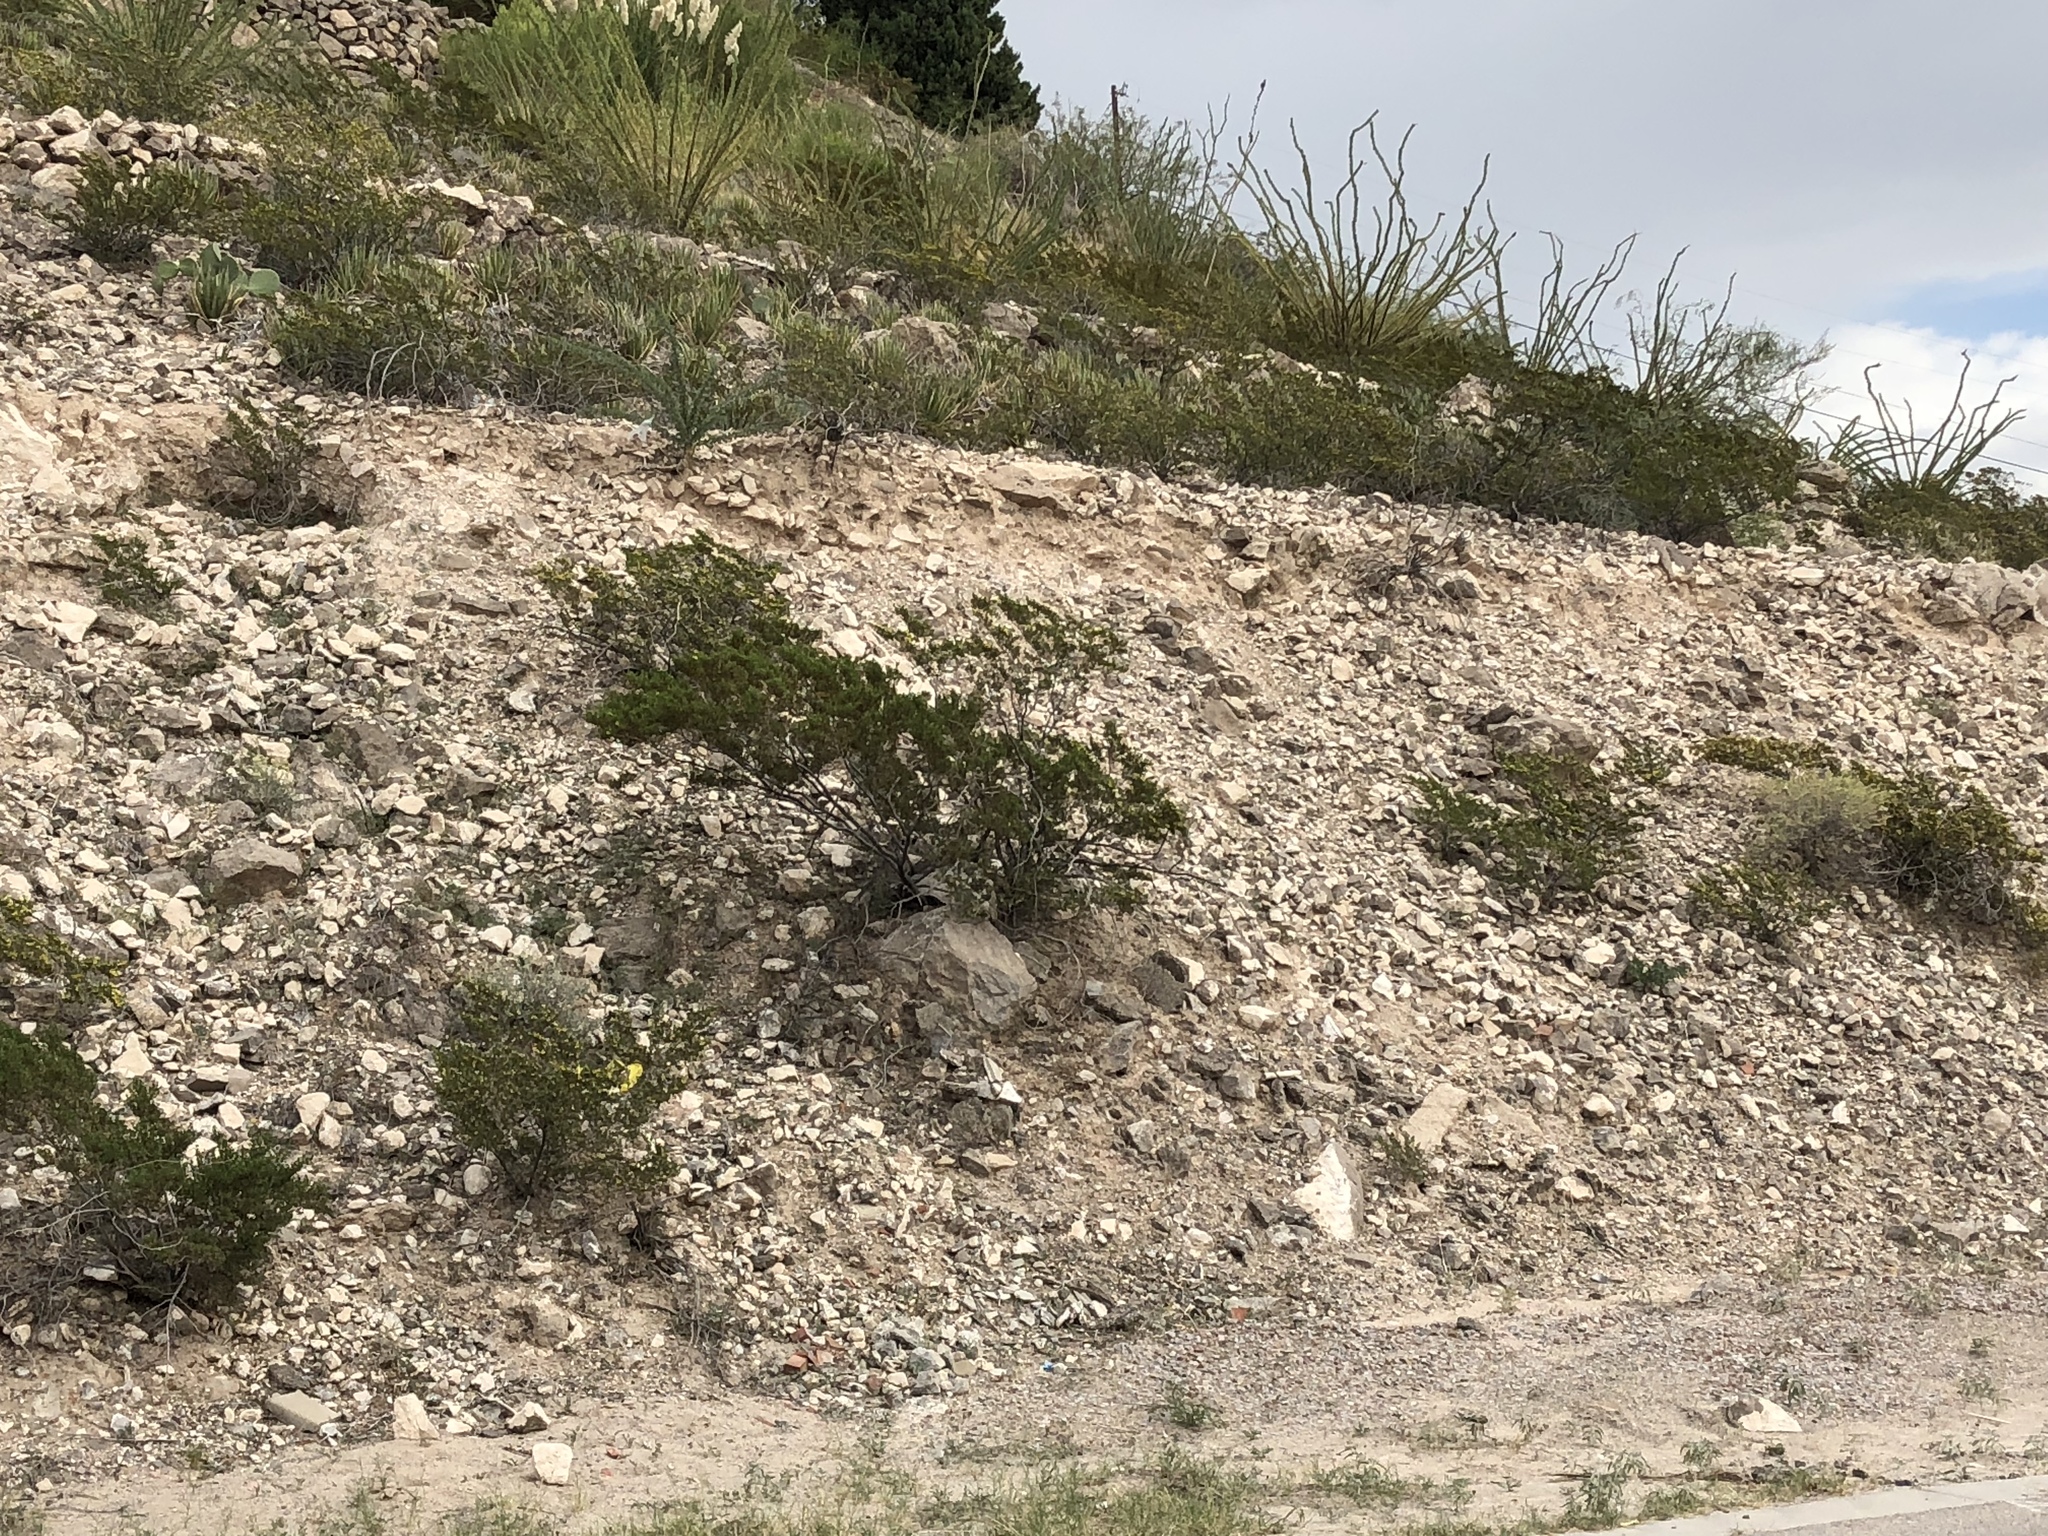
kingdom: Plantae
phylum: Tracheophyta
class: Magnoliopsida
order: Zygophyllales
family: Zygophyllaceae
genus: Larrea
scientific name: Larrea tridentata
